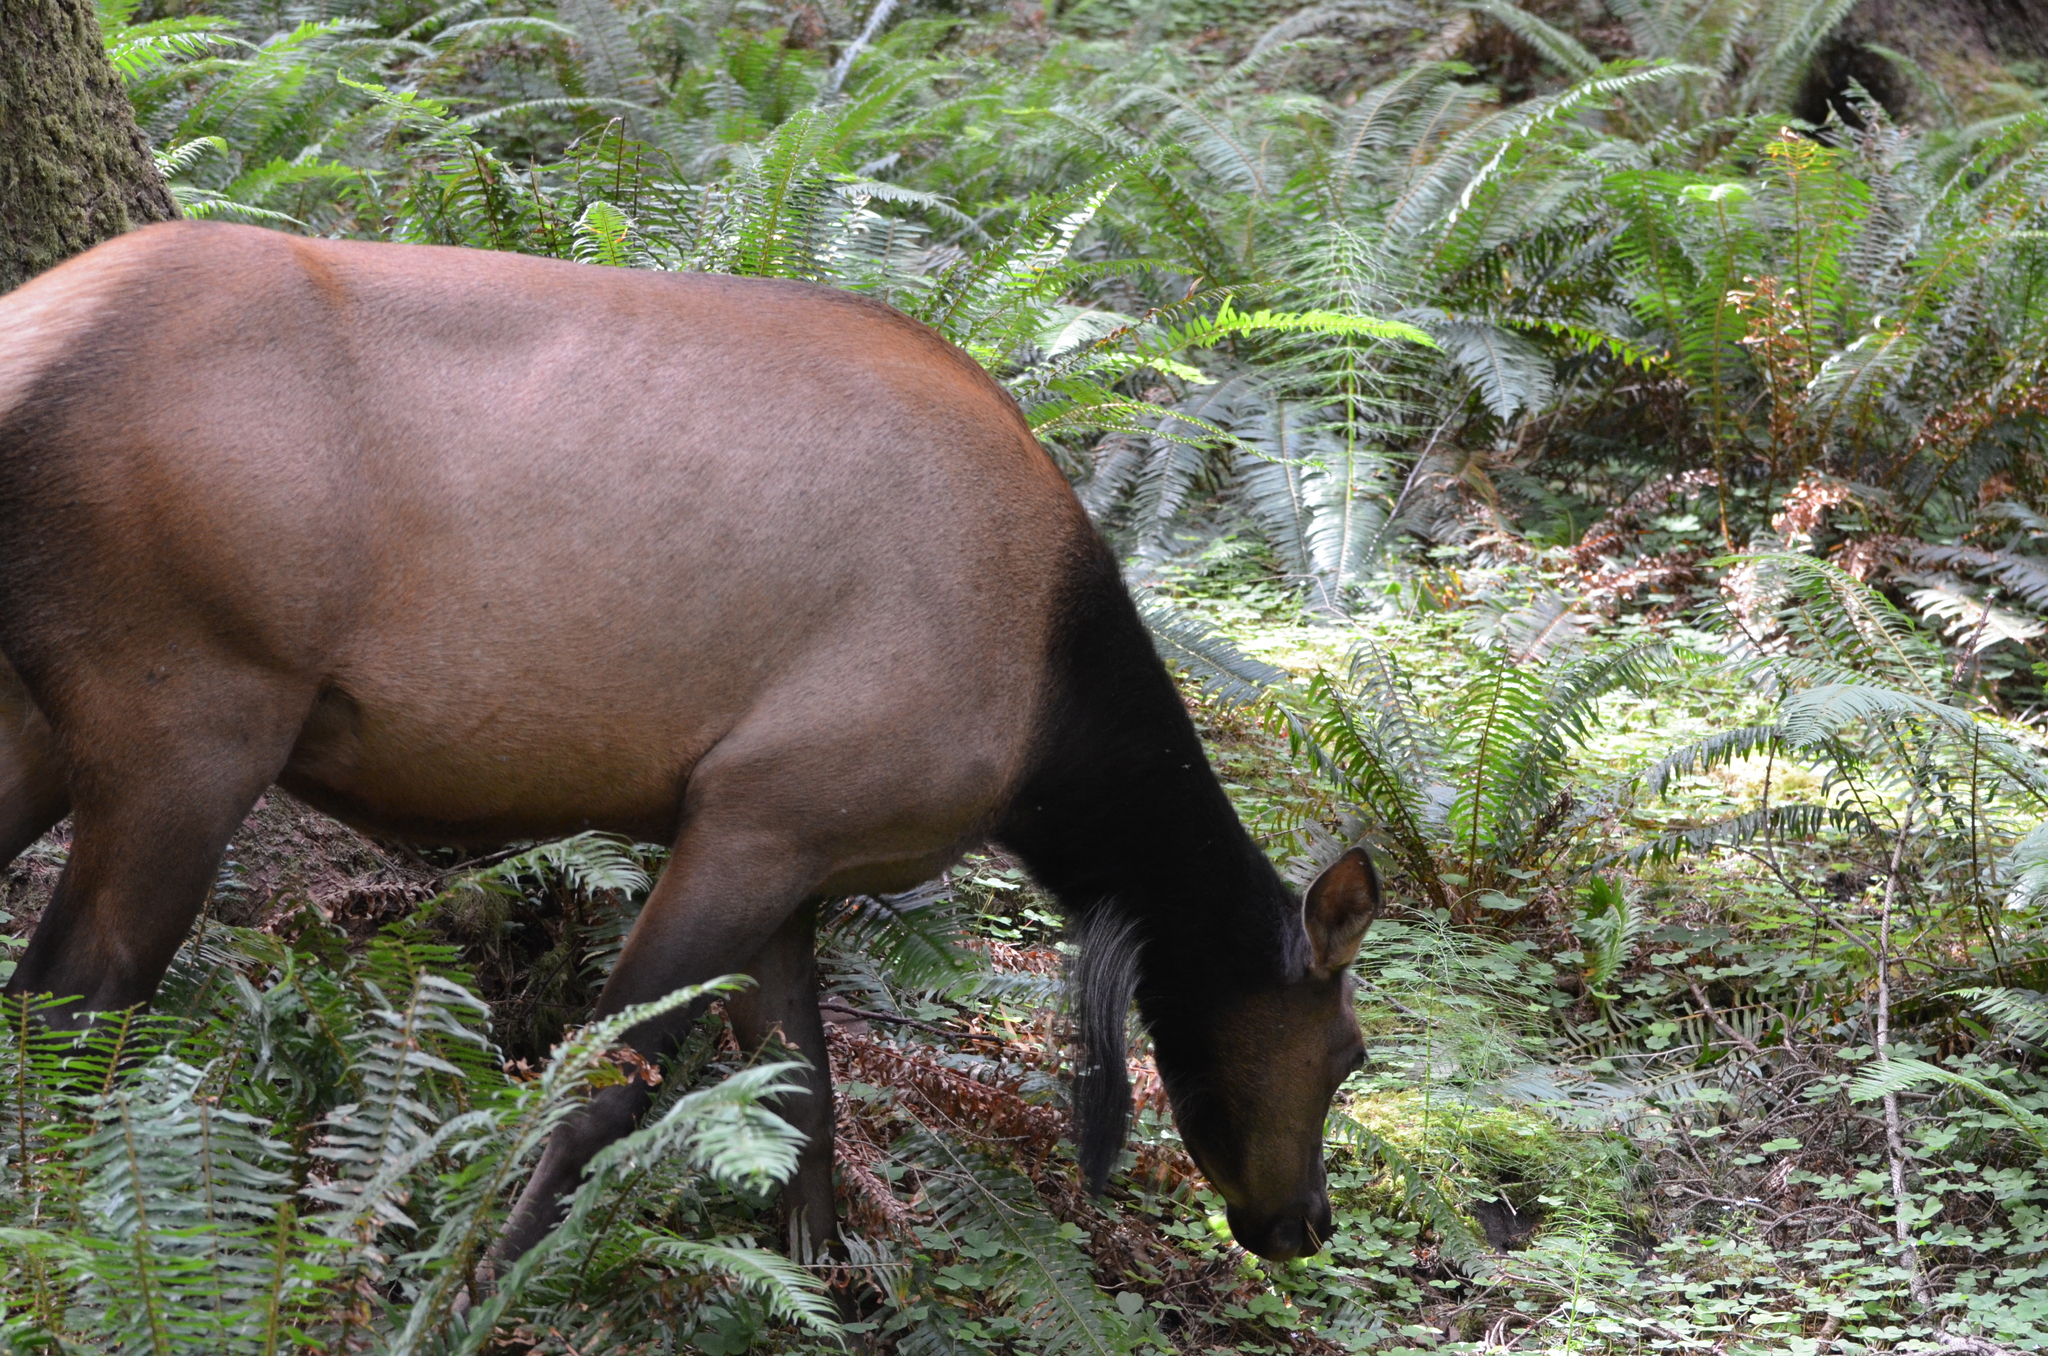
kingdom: Animalia
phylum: Chordata
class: Mammalia
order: Artiodactyla
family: Cervidae
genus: Cervus
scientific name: Cervus elaphus
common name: Red deer
